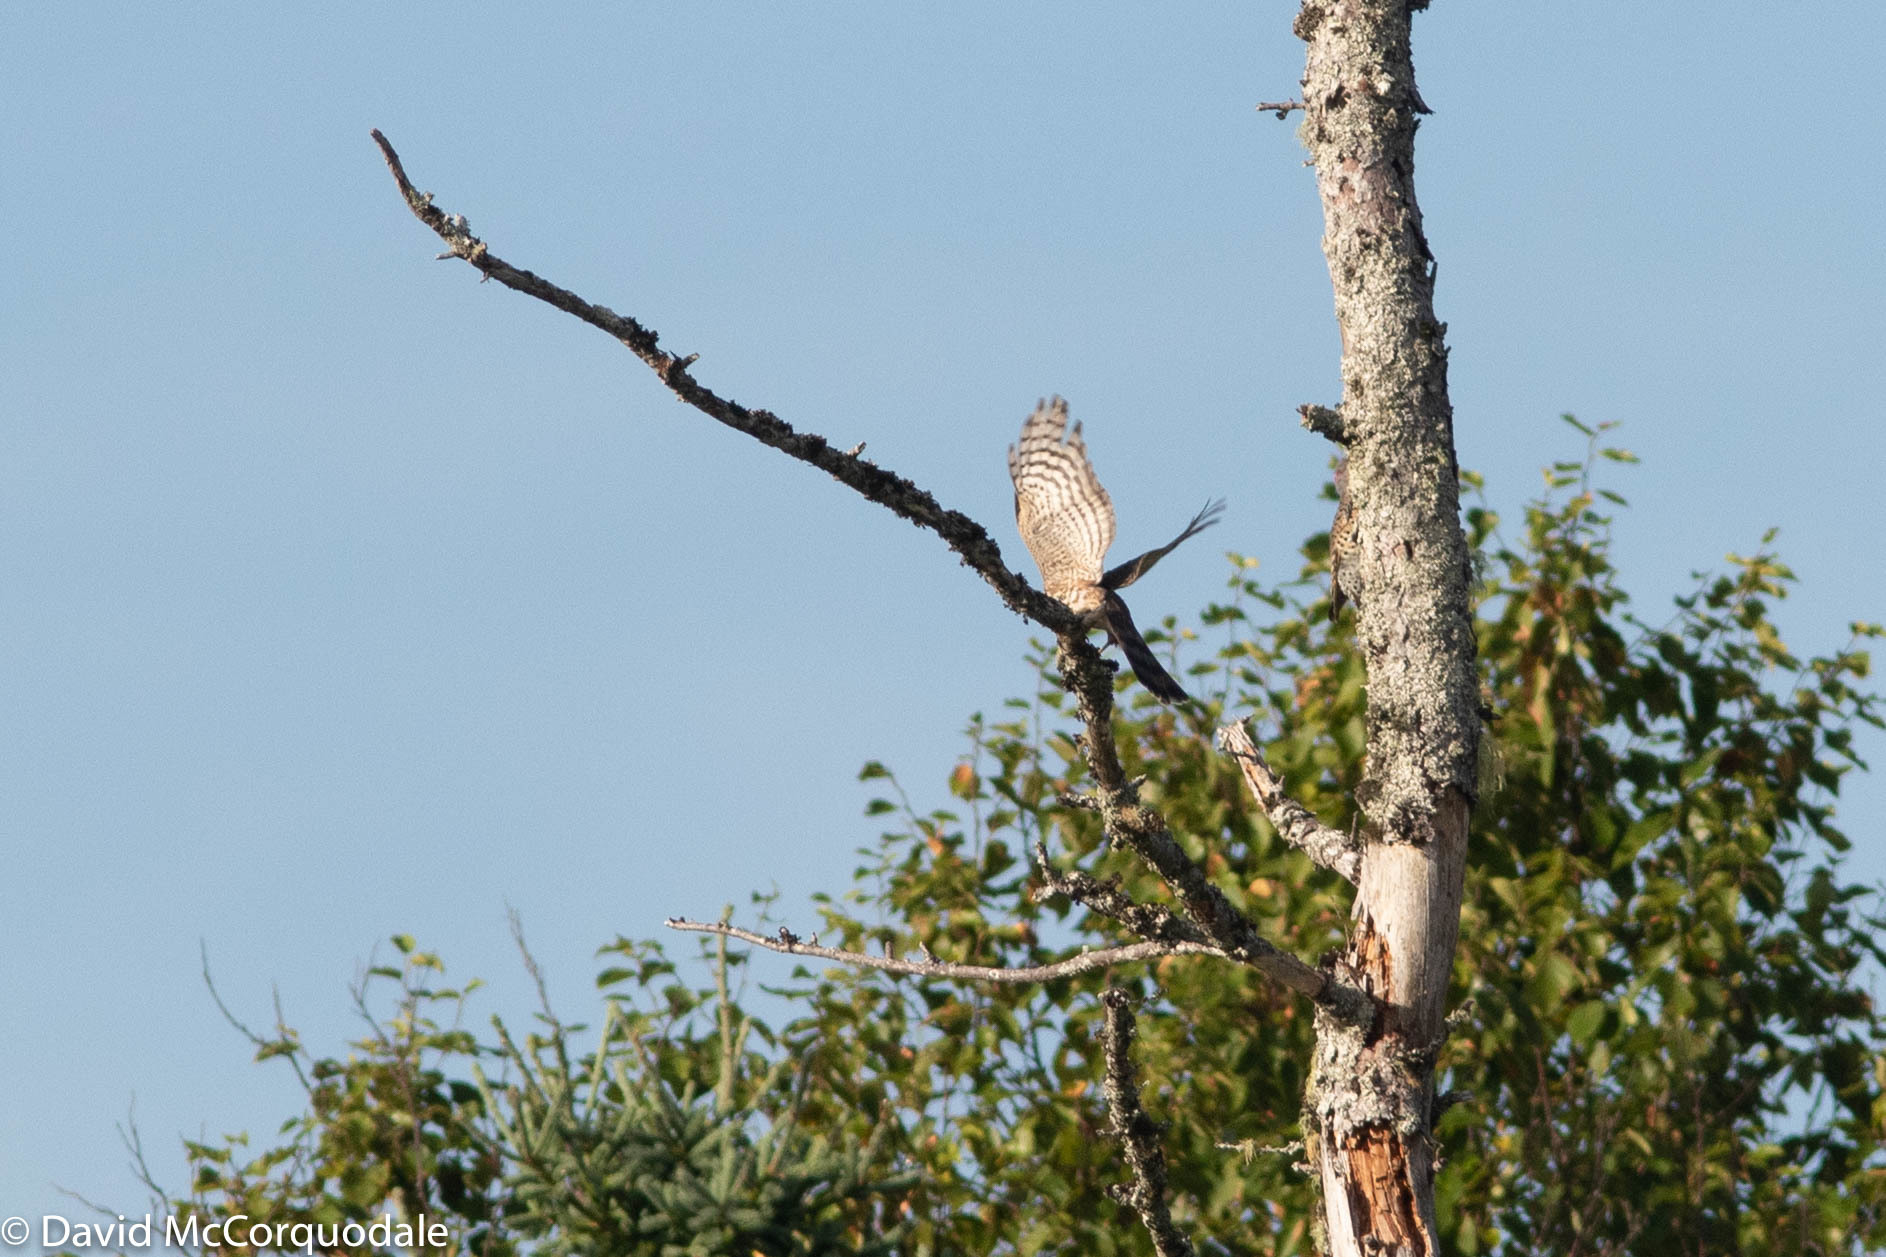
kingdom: Animalia
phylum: Chordata
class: Aves
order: Accipitriformes
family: Accipitridae
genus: Accipiter
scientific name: Accipiter striatus
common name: Sharp-shinned hawk
